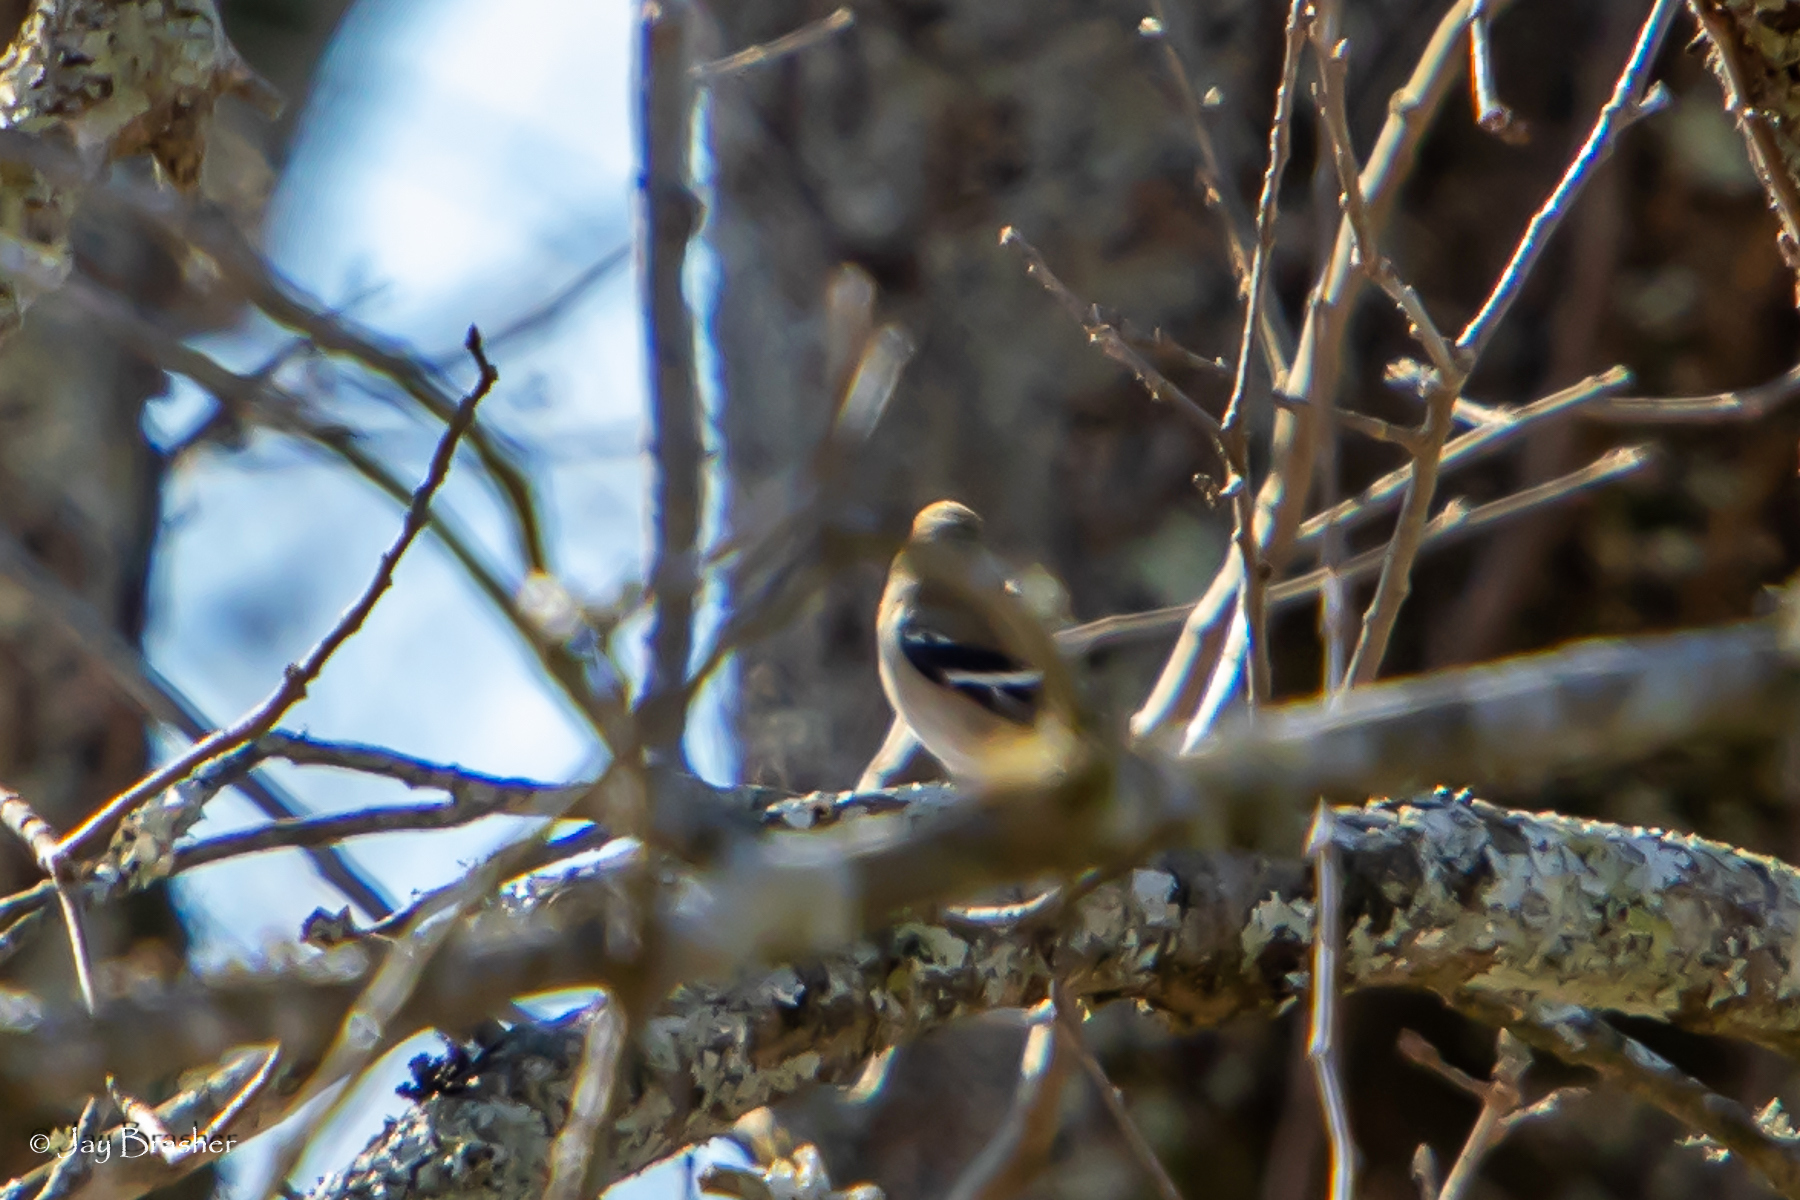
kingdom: Animalia
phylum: Chordata
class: Aves
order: Passeriformes
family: Fringillidae
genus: Spinus
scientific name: Spinus tristis
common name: American goldfinch
